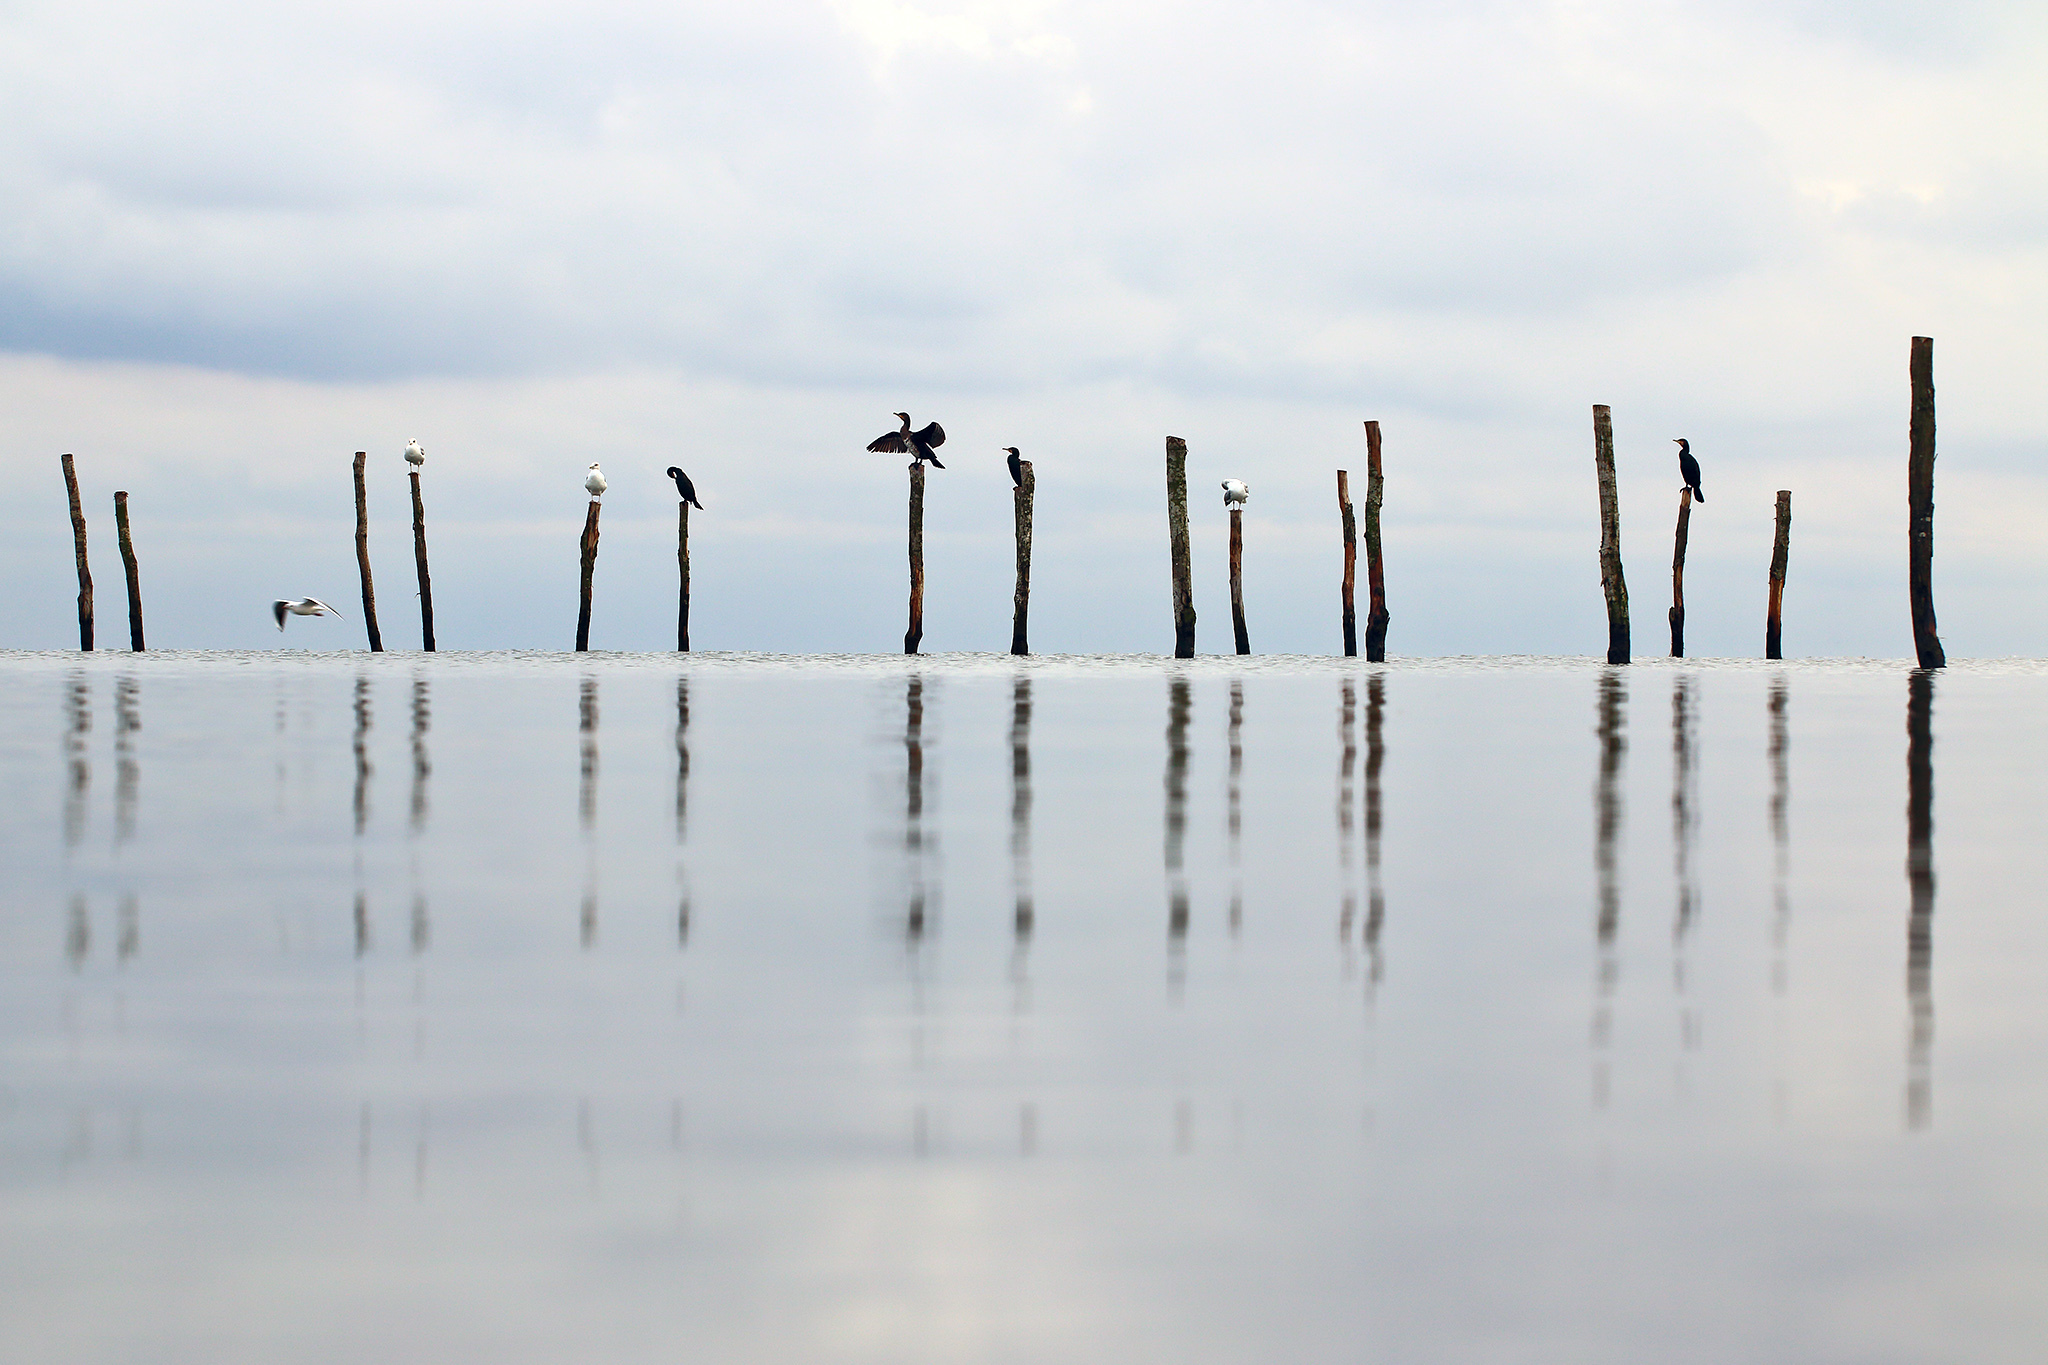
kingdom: Animalia
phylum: Chordata
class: Aves
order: Suliformes
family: Phalacrocoracidae
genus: Phalacrocorax
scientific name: Phalacrocorax carbo
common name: Great cormorant
